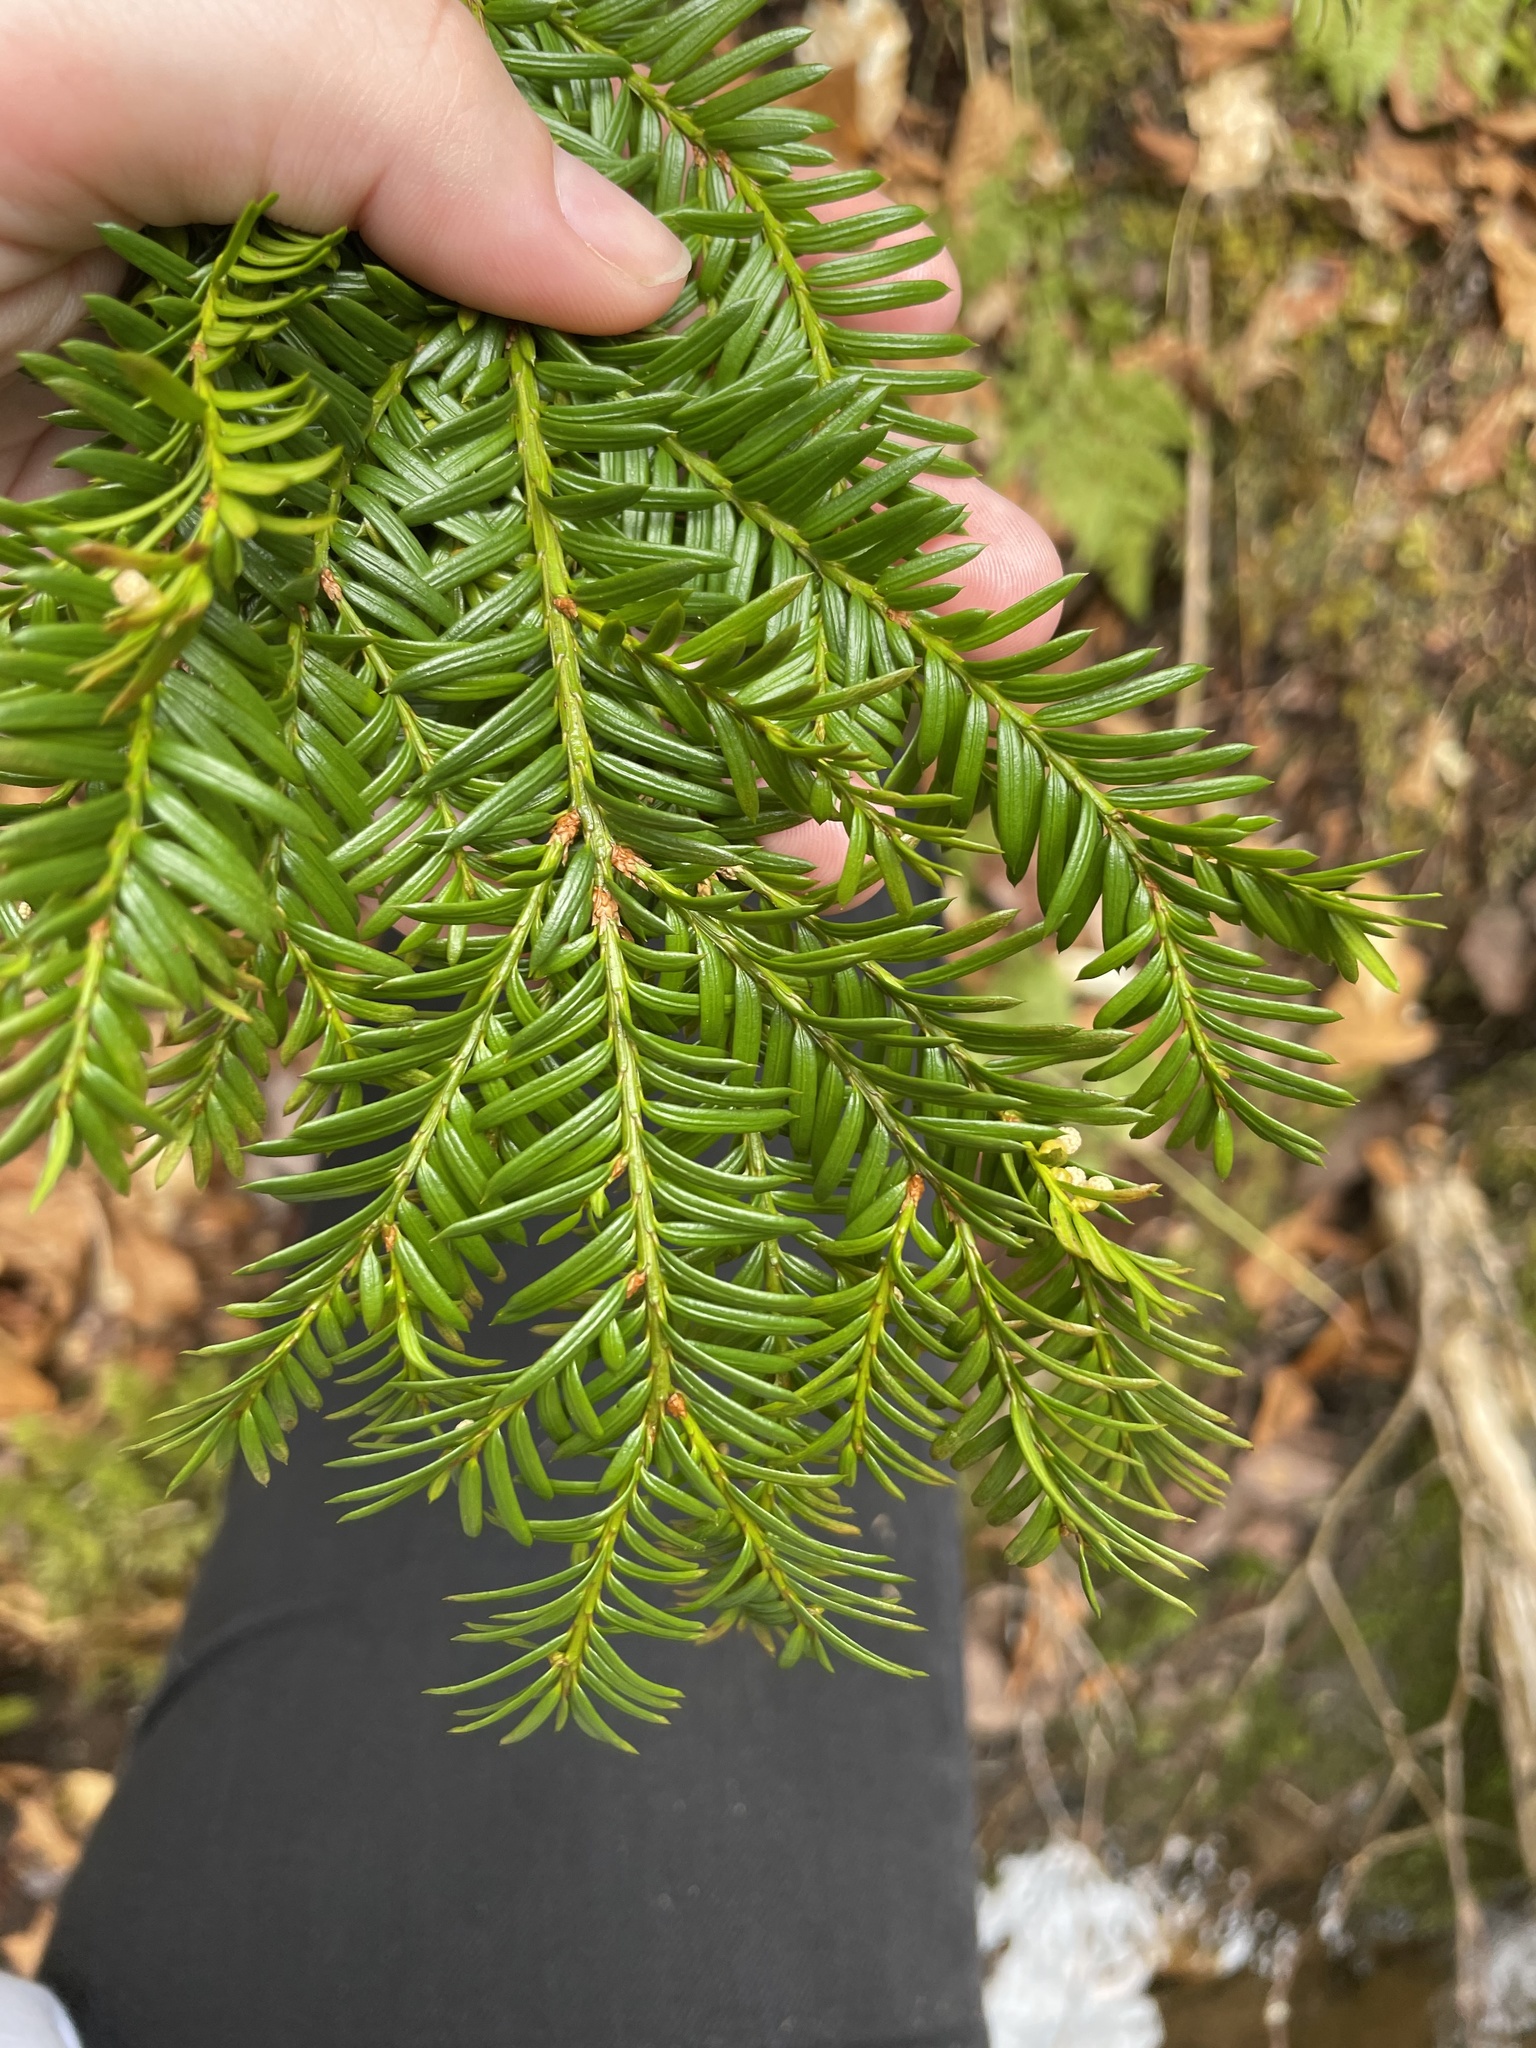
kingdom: Plantae
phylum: Tracheophyta
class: Pinopsida
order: Pinales
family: Taxaceae
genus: Taxus
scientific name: Taxus canadensis
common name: American yew
